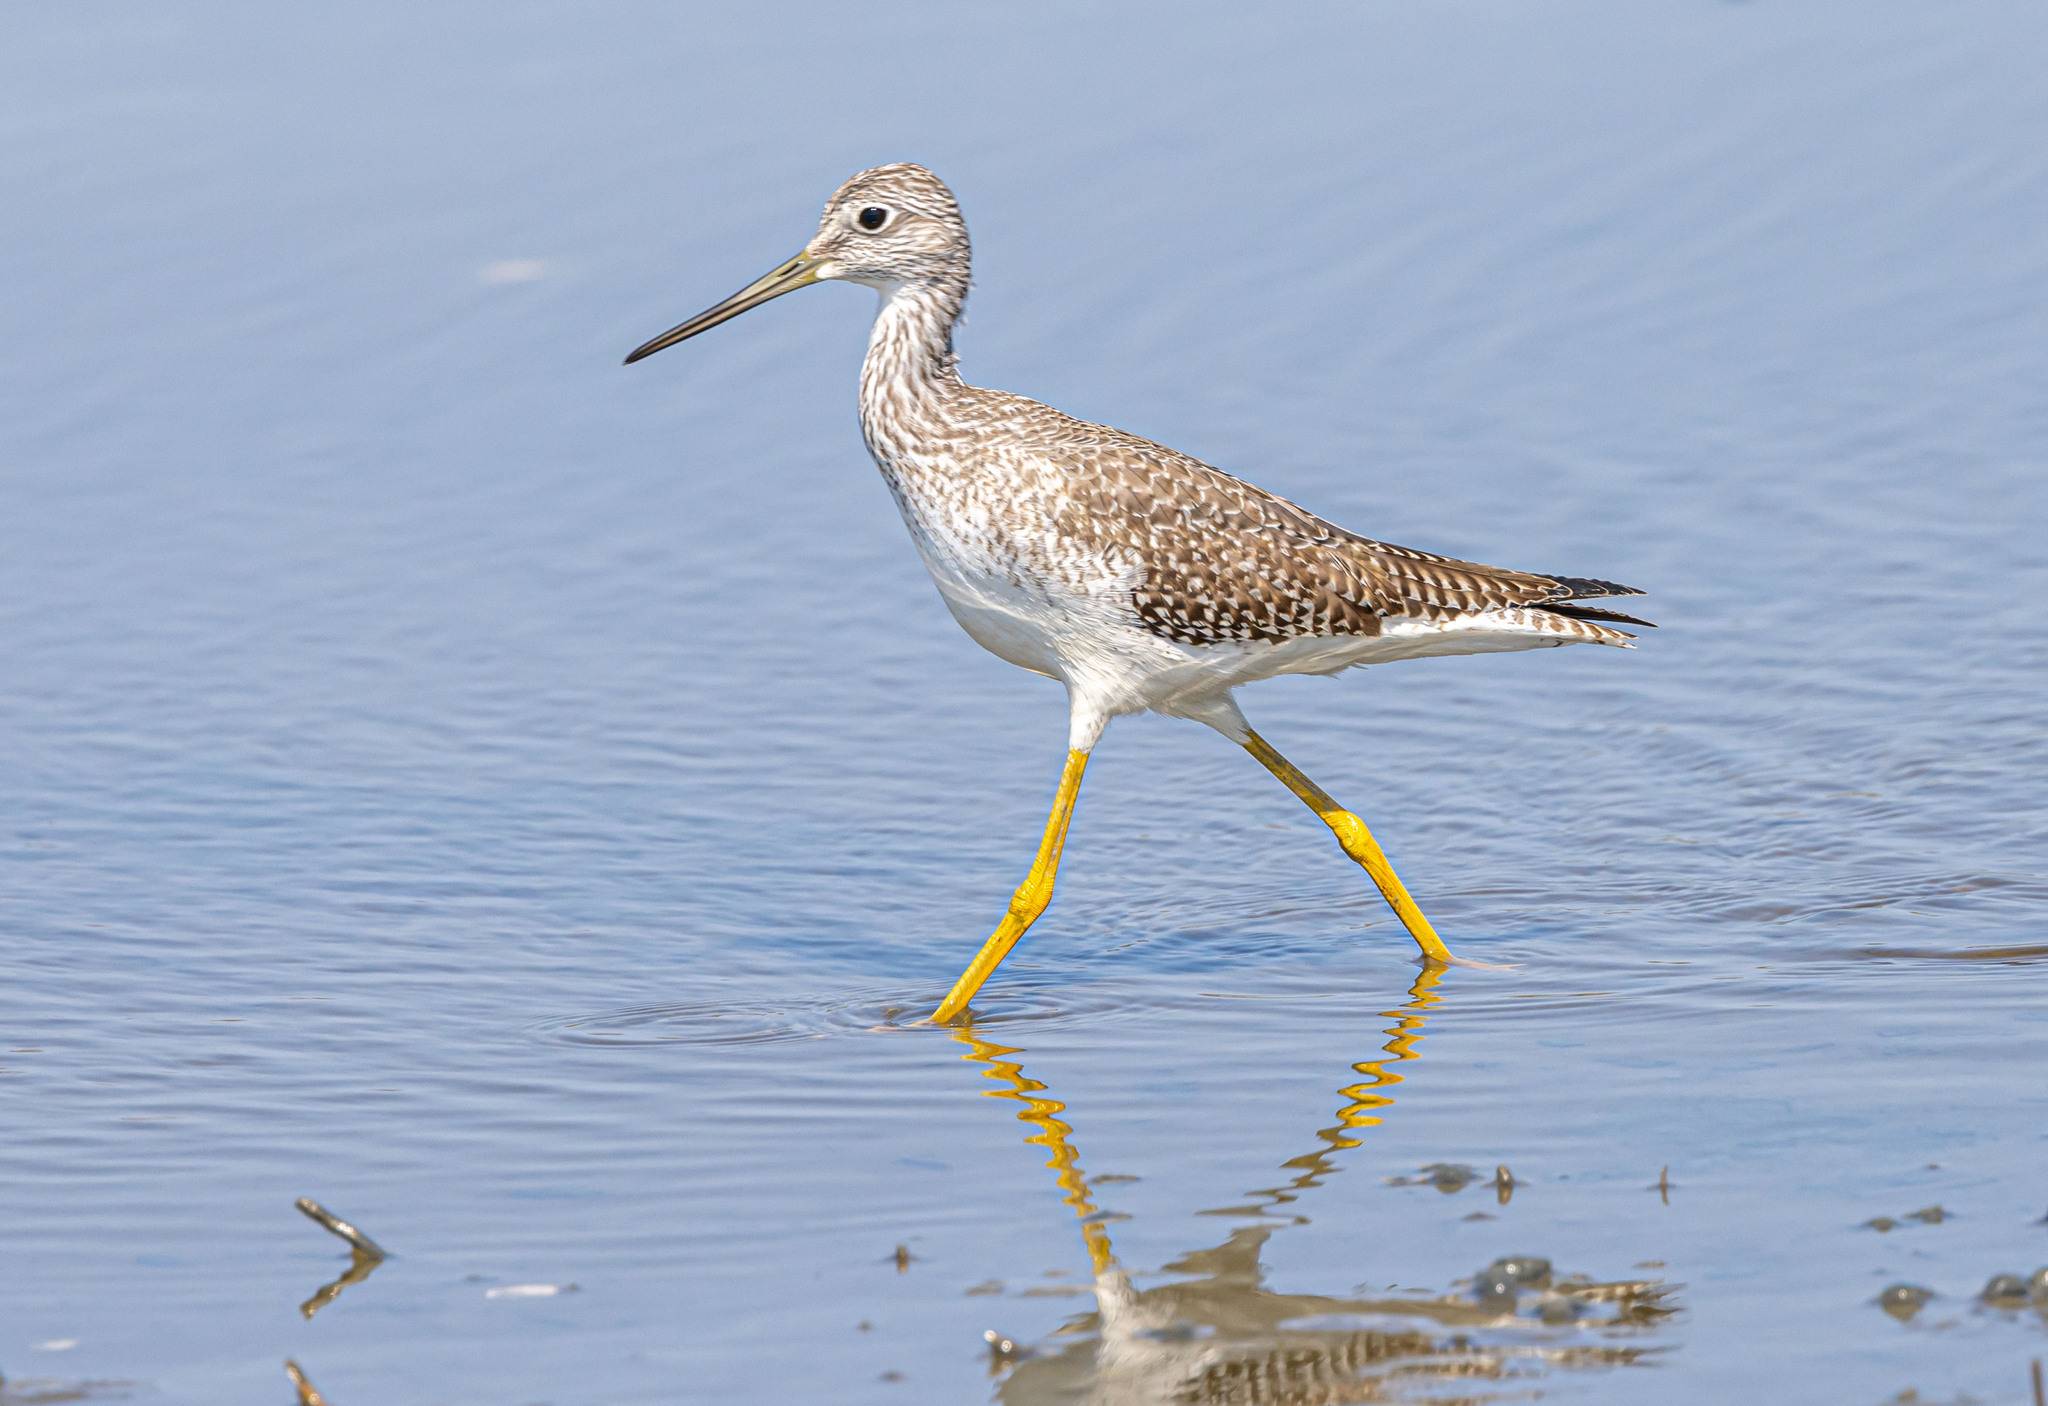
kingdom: Animalia
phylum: Chordata
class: Aves
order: Charadriiformes
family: Scolopacidae
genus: Tringa
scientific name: Tringa melanoleuca
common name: Greater yellowlegs
